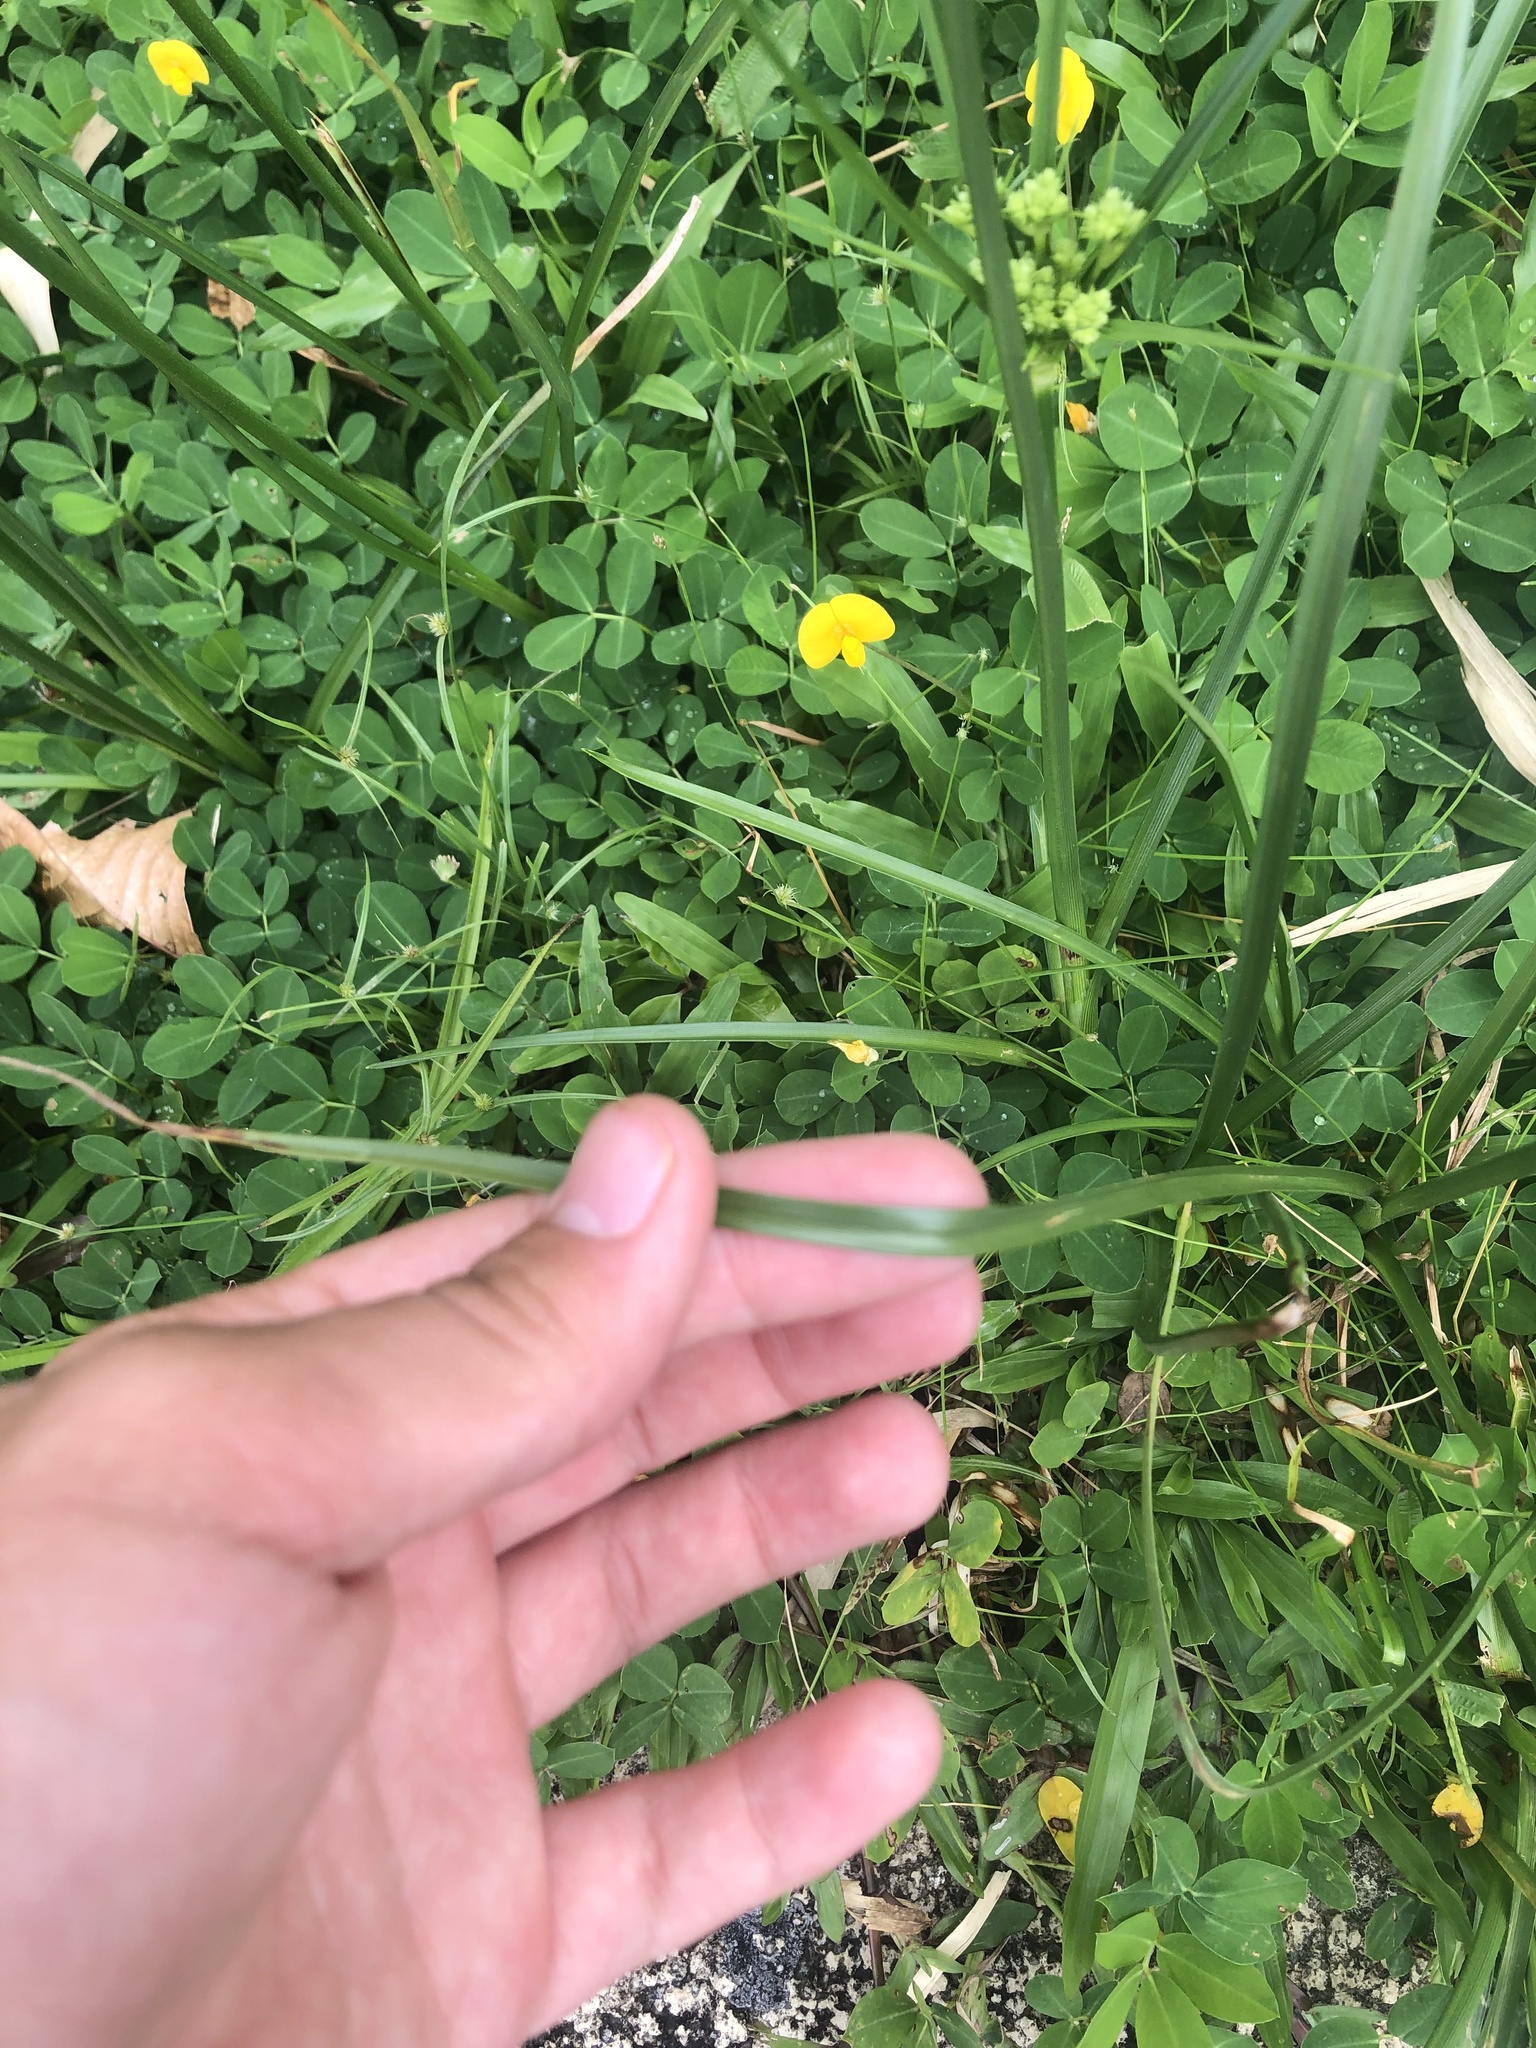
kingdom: Plantae
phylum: Tracheophyta
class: Liliopsida
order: Poales
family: Cyperaceae
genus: Cyperus
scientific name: Cyperus surinamensis
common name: Tropical flat sedge
